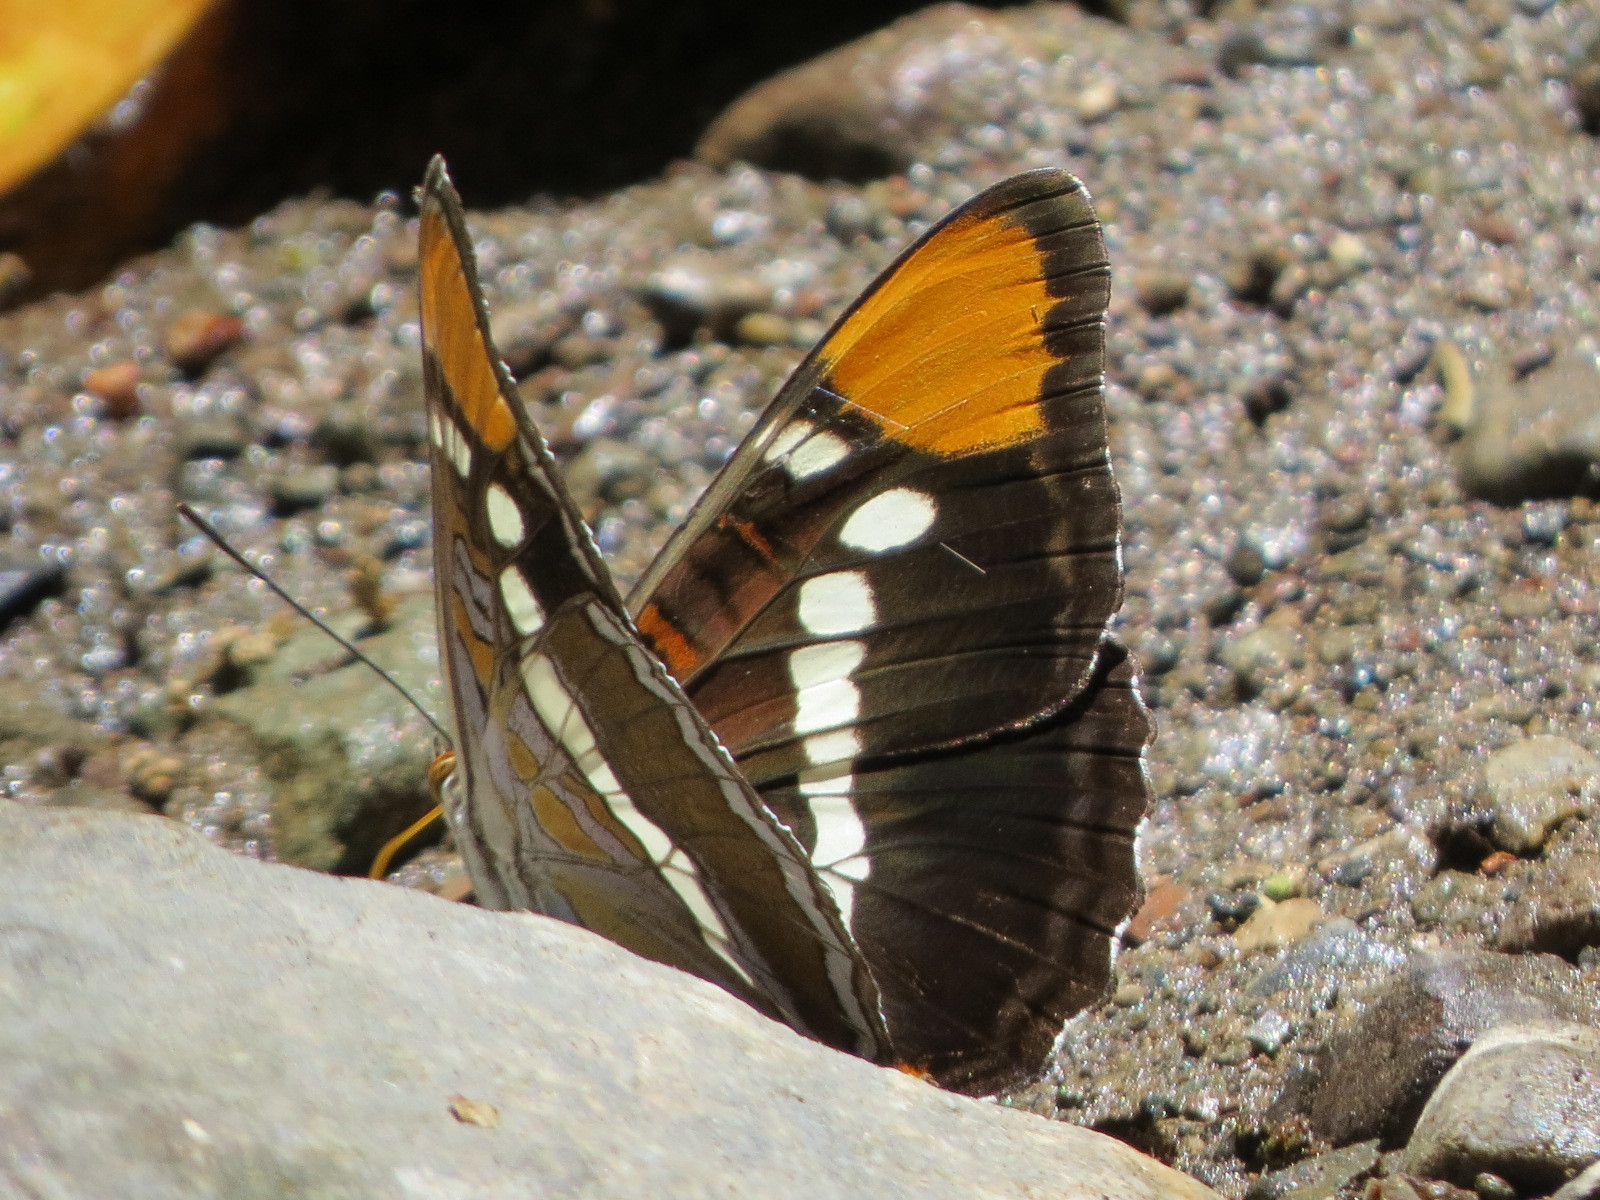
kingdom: Animalia
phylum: Arthropoda
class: Insecta
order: Lepidoptera
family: Nymphalidae
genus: Limenitis
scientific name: Limenitis bredowii
